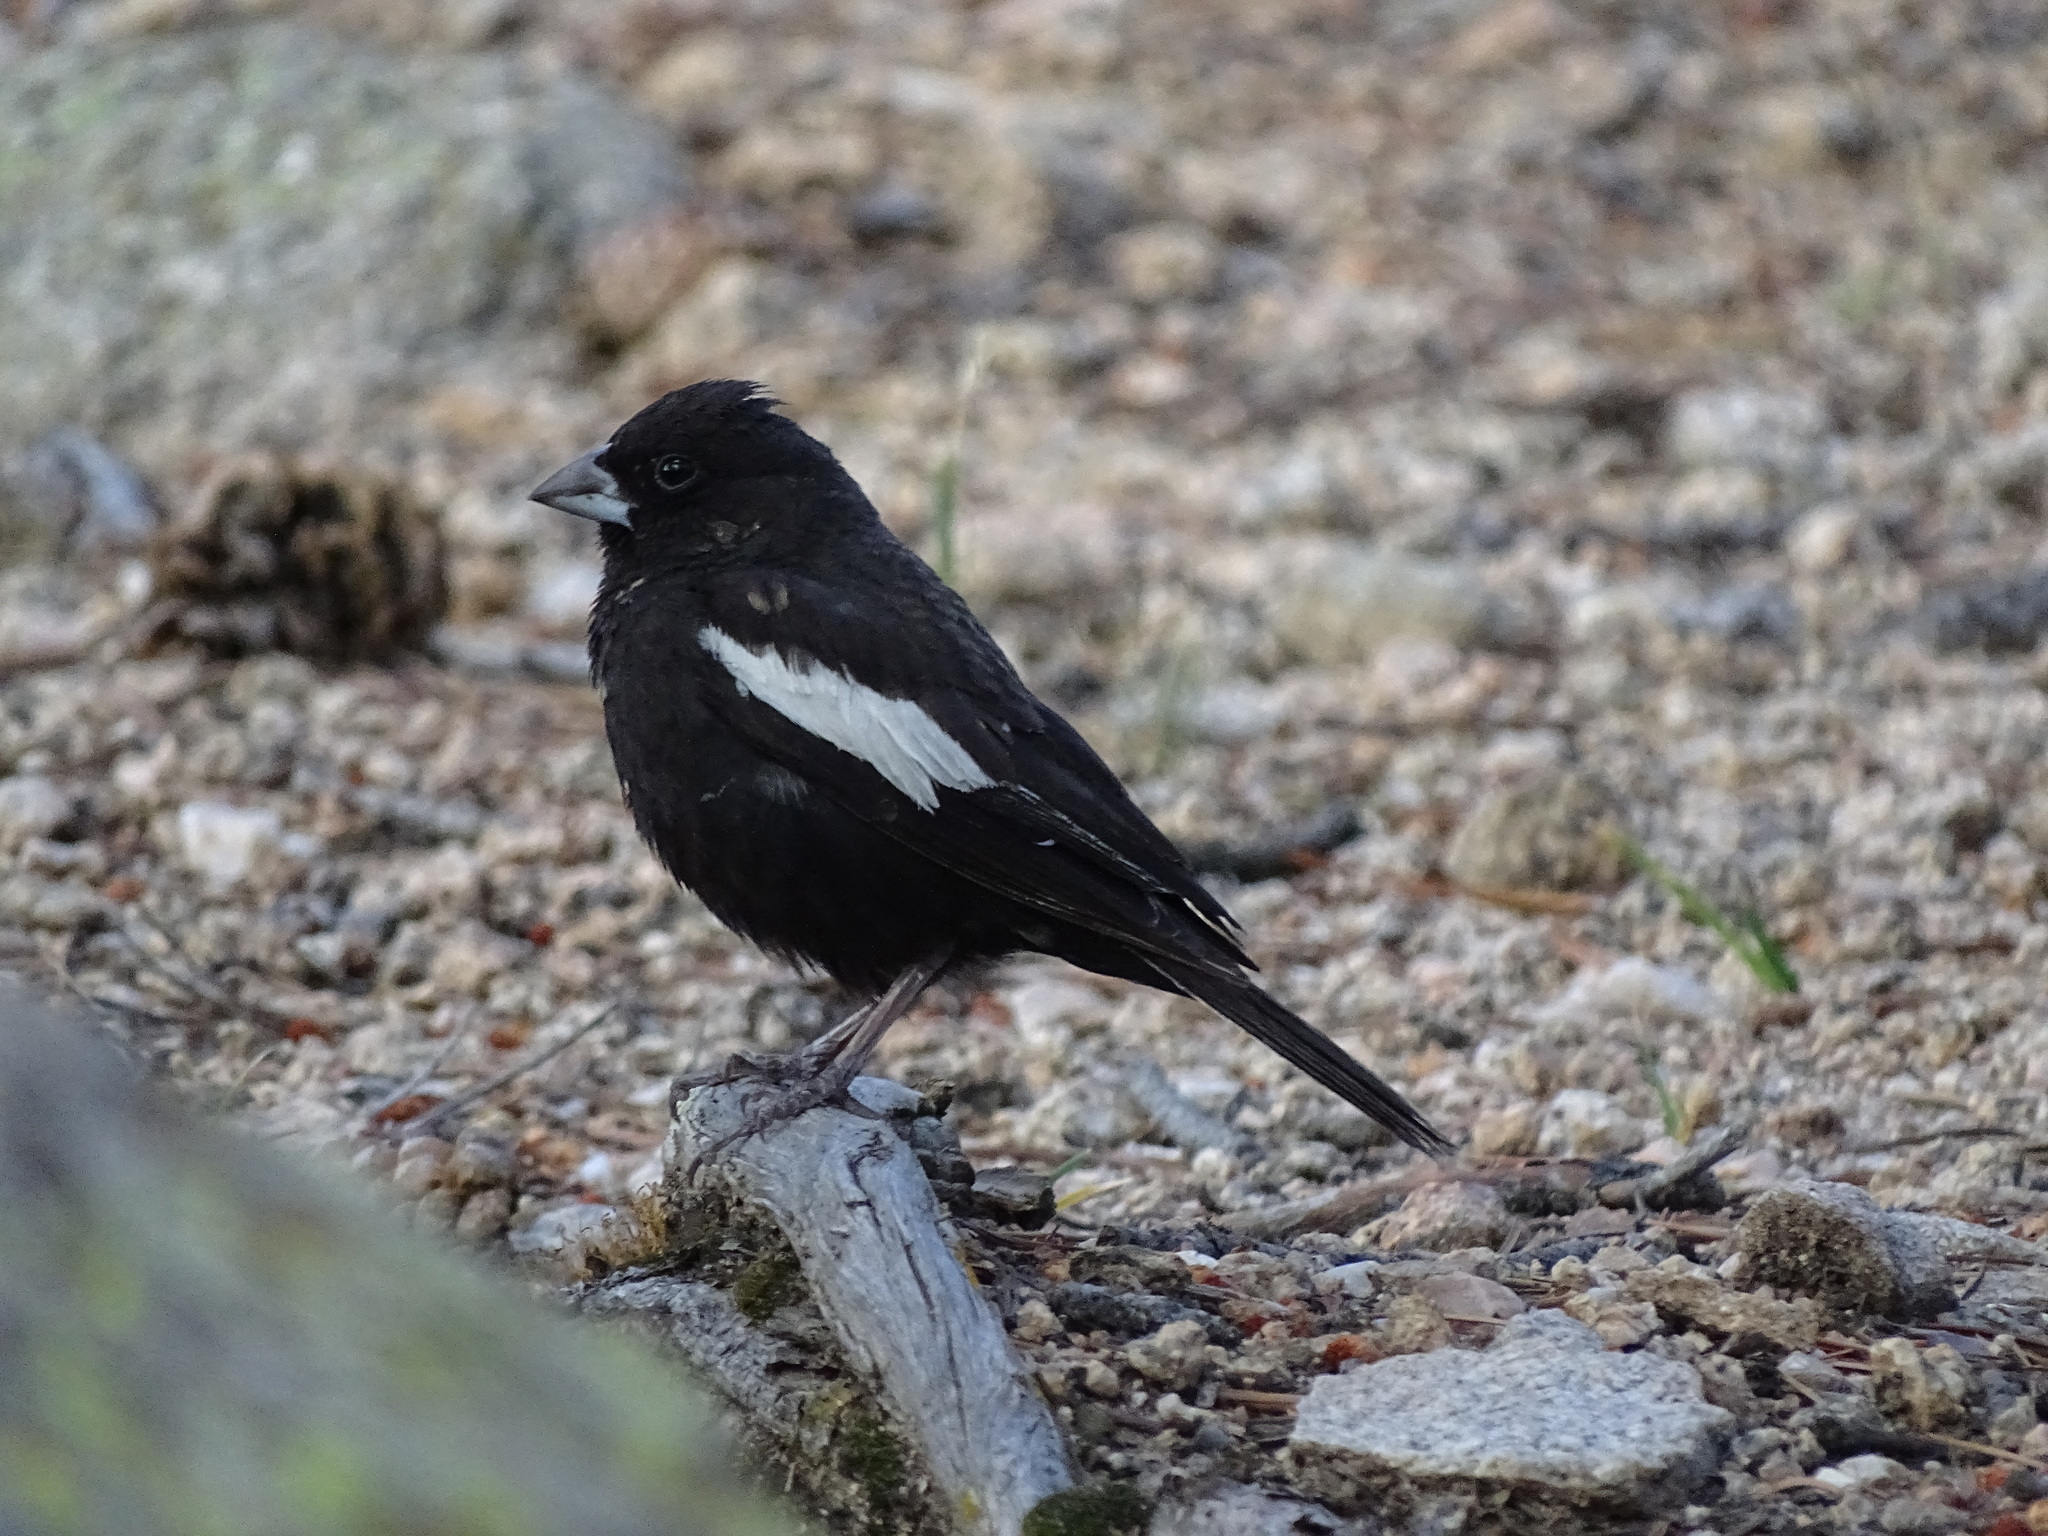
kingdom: Animalia
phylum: Chordata
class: Aves
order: Passeriformes
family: Passerellidae
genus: Calamospiza
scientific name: Calamospiza melanocorys
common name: Lark bunting
